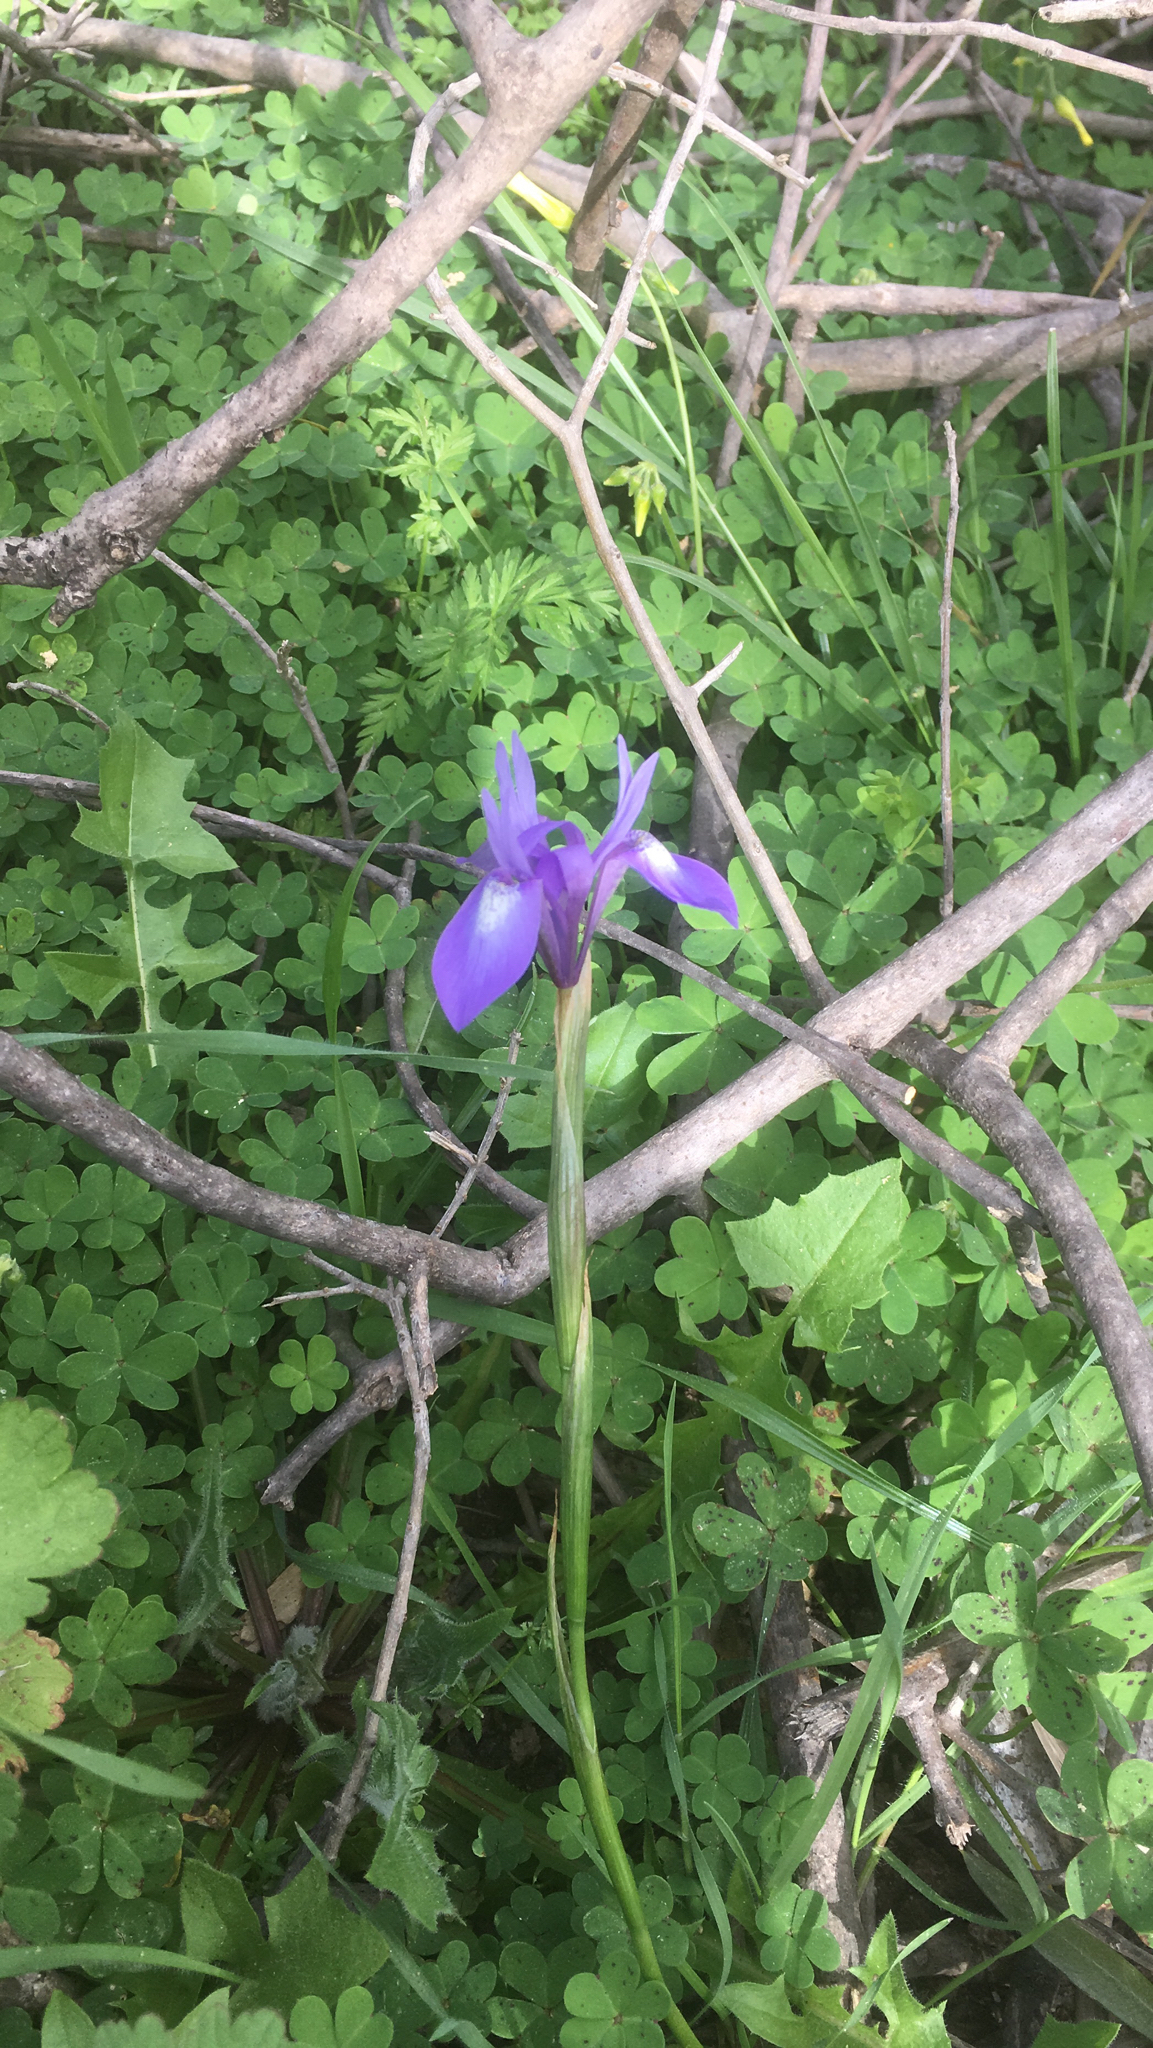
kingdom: Plantae
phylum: Tracheophyta
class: Liliopsida
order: Asparagales
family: Iridaceae
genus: Moraea
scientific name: Moraea sisyrinchium
